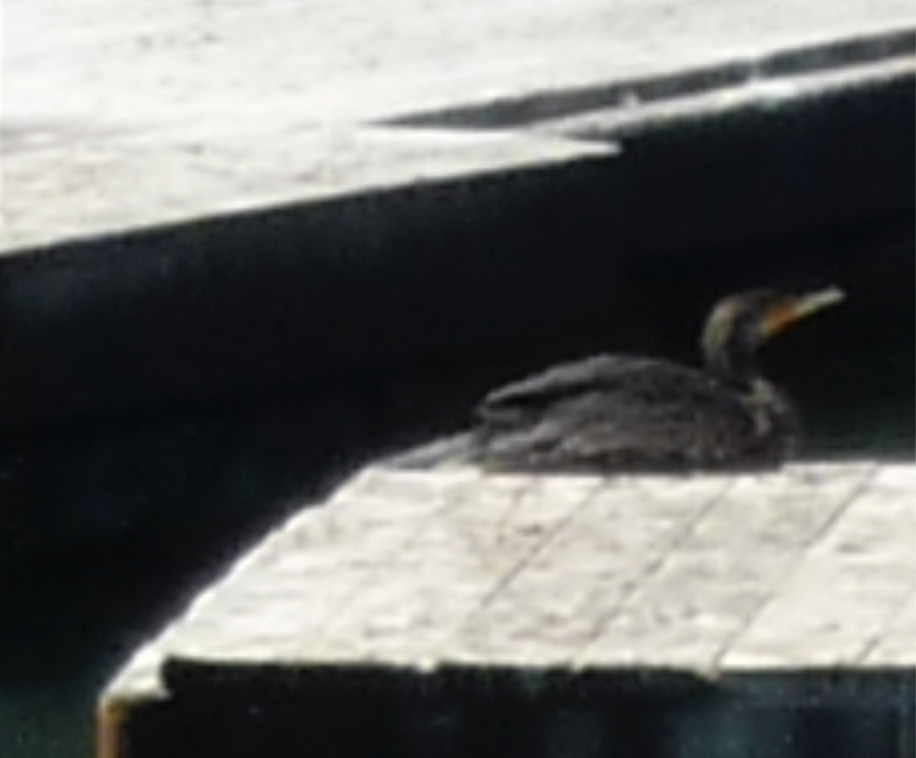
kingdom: Animalia
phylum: Chordata
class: Aves
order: Suliformes
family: Phalacrocoracidae
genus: Phalacrocorax
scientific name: Phalacrocorax auritus
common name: Double-crested cormorant
